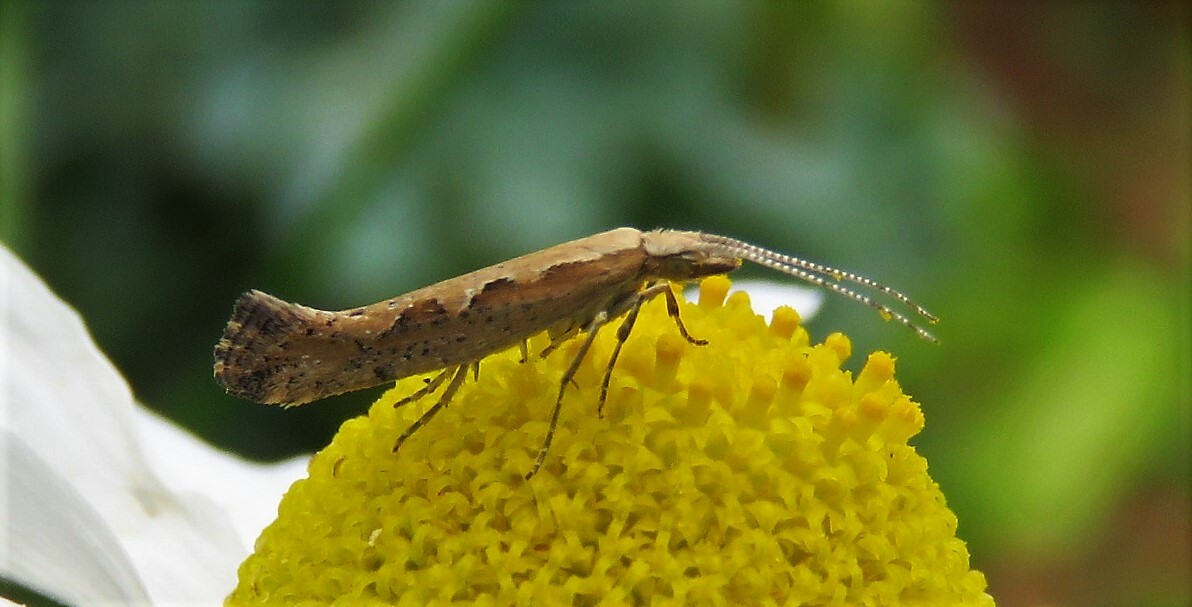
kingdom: Animalia
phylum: Arthropoda
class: Insecta
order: Lepidoptera
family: Plutellidae
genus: Plutella
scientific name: Plutella xylostella
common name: Diamond-back moth
